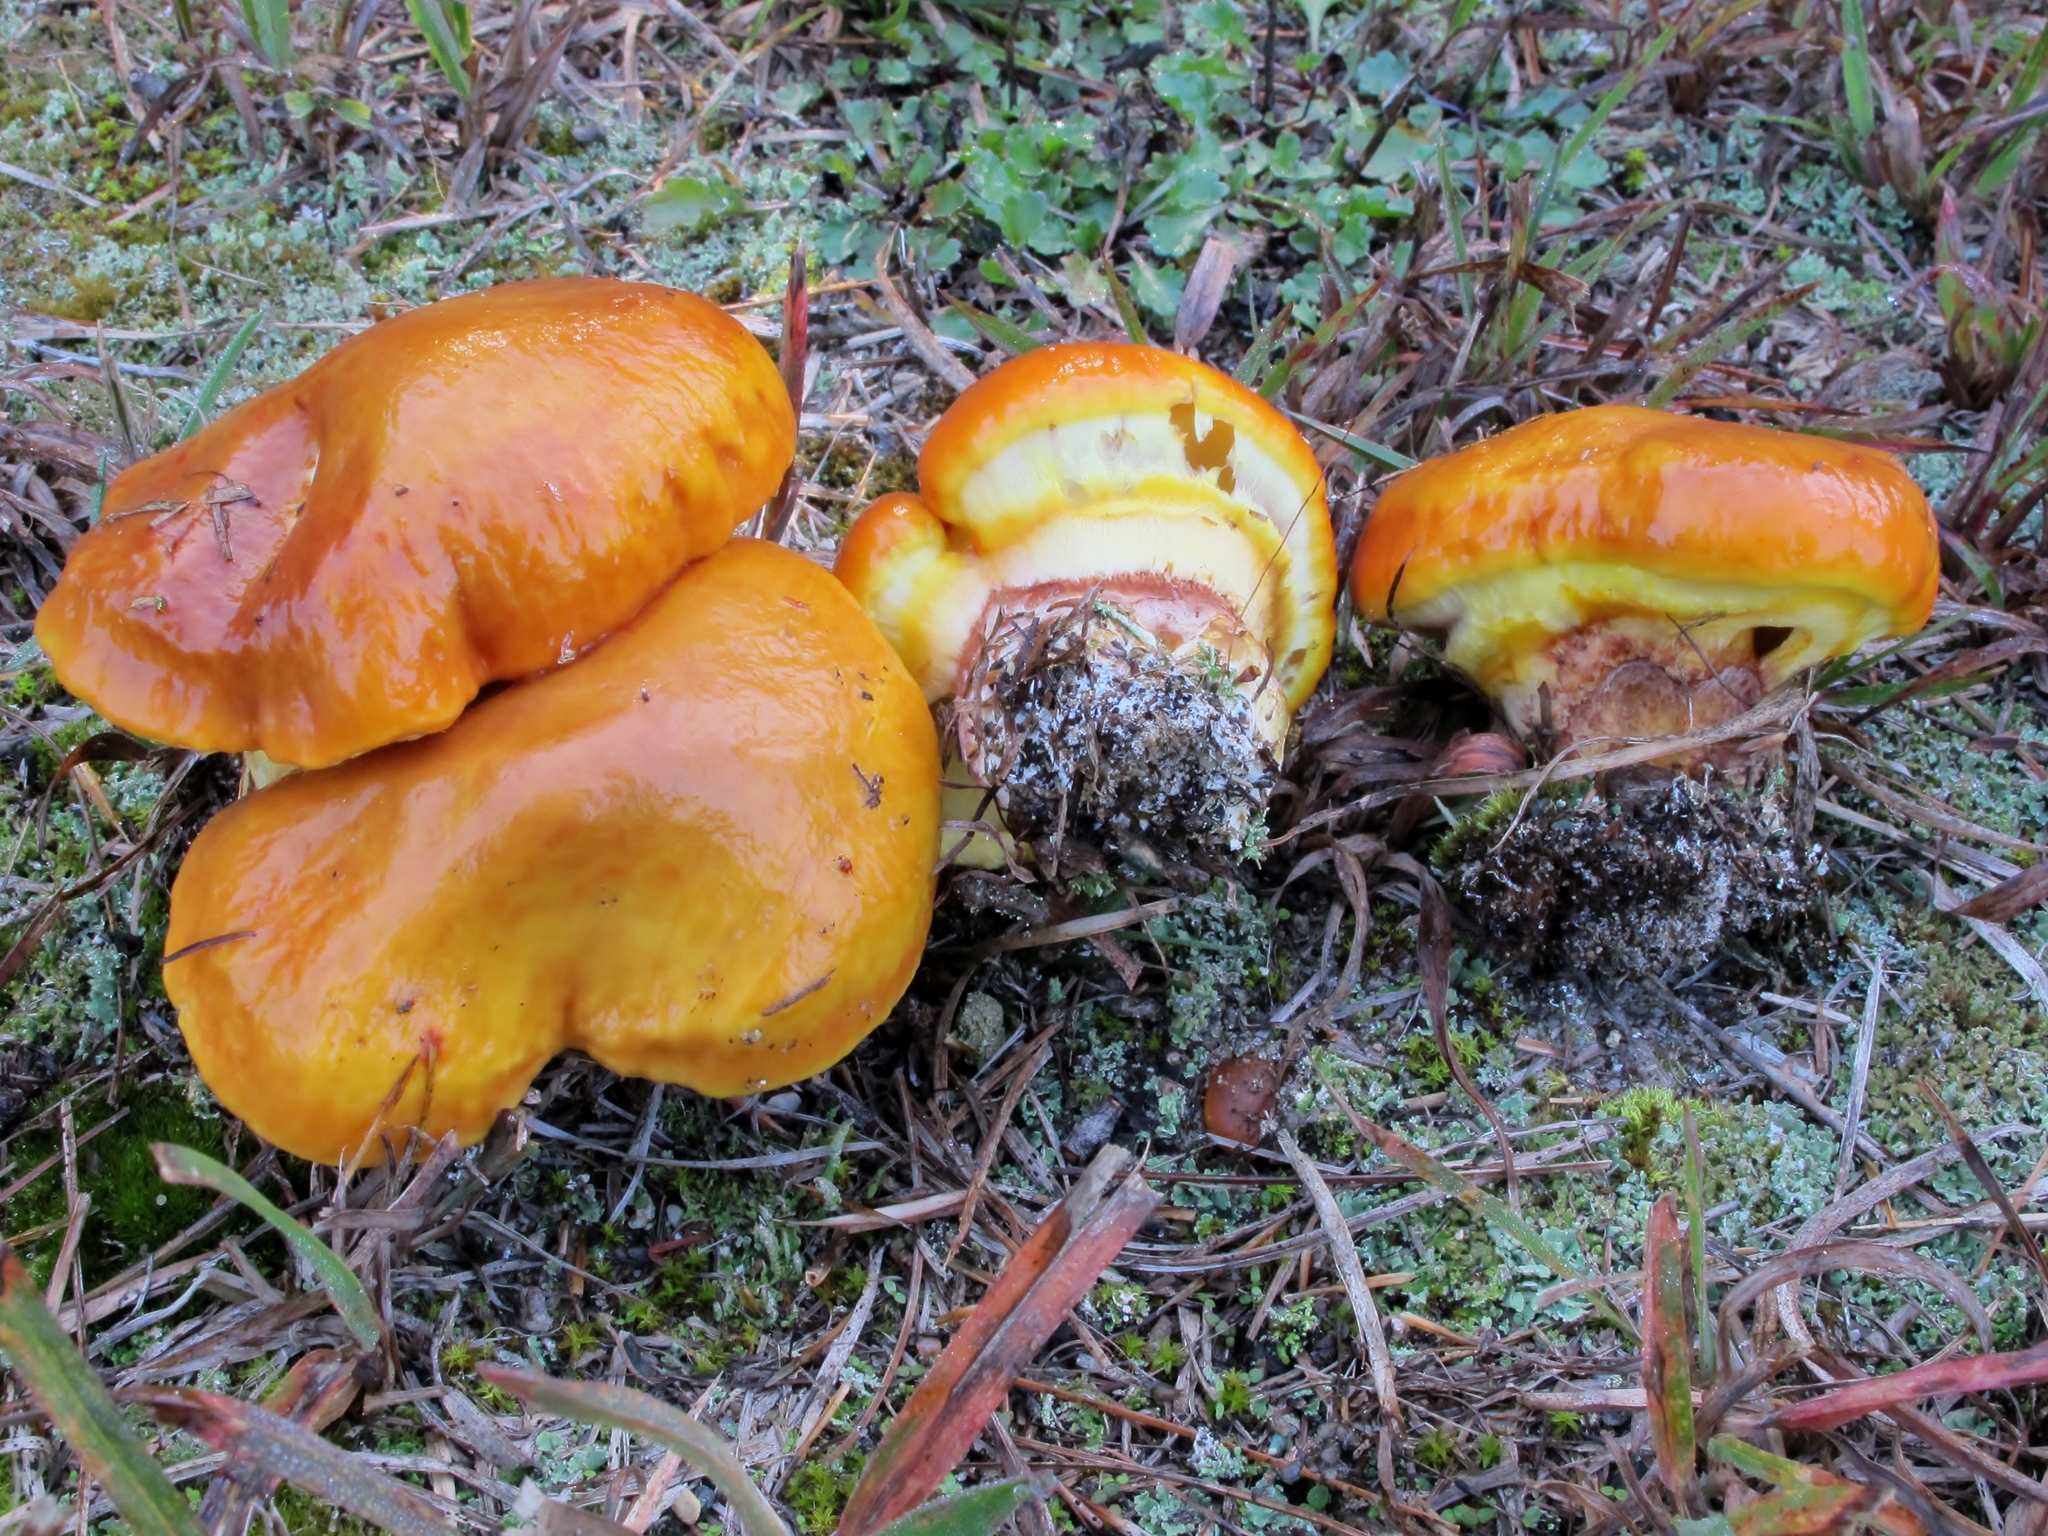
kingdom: Fungi
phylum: Basidiomycota
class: Agaricomycetes
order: Boletales
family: Suillaceae
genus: Suillus
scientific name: Suillus grevillei
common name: Larch bolete
